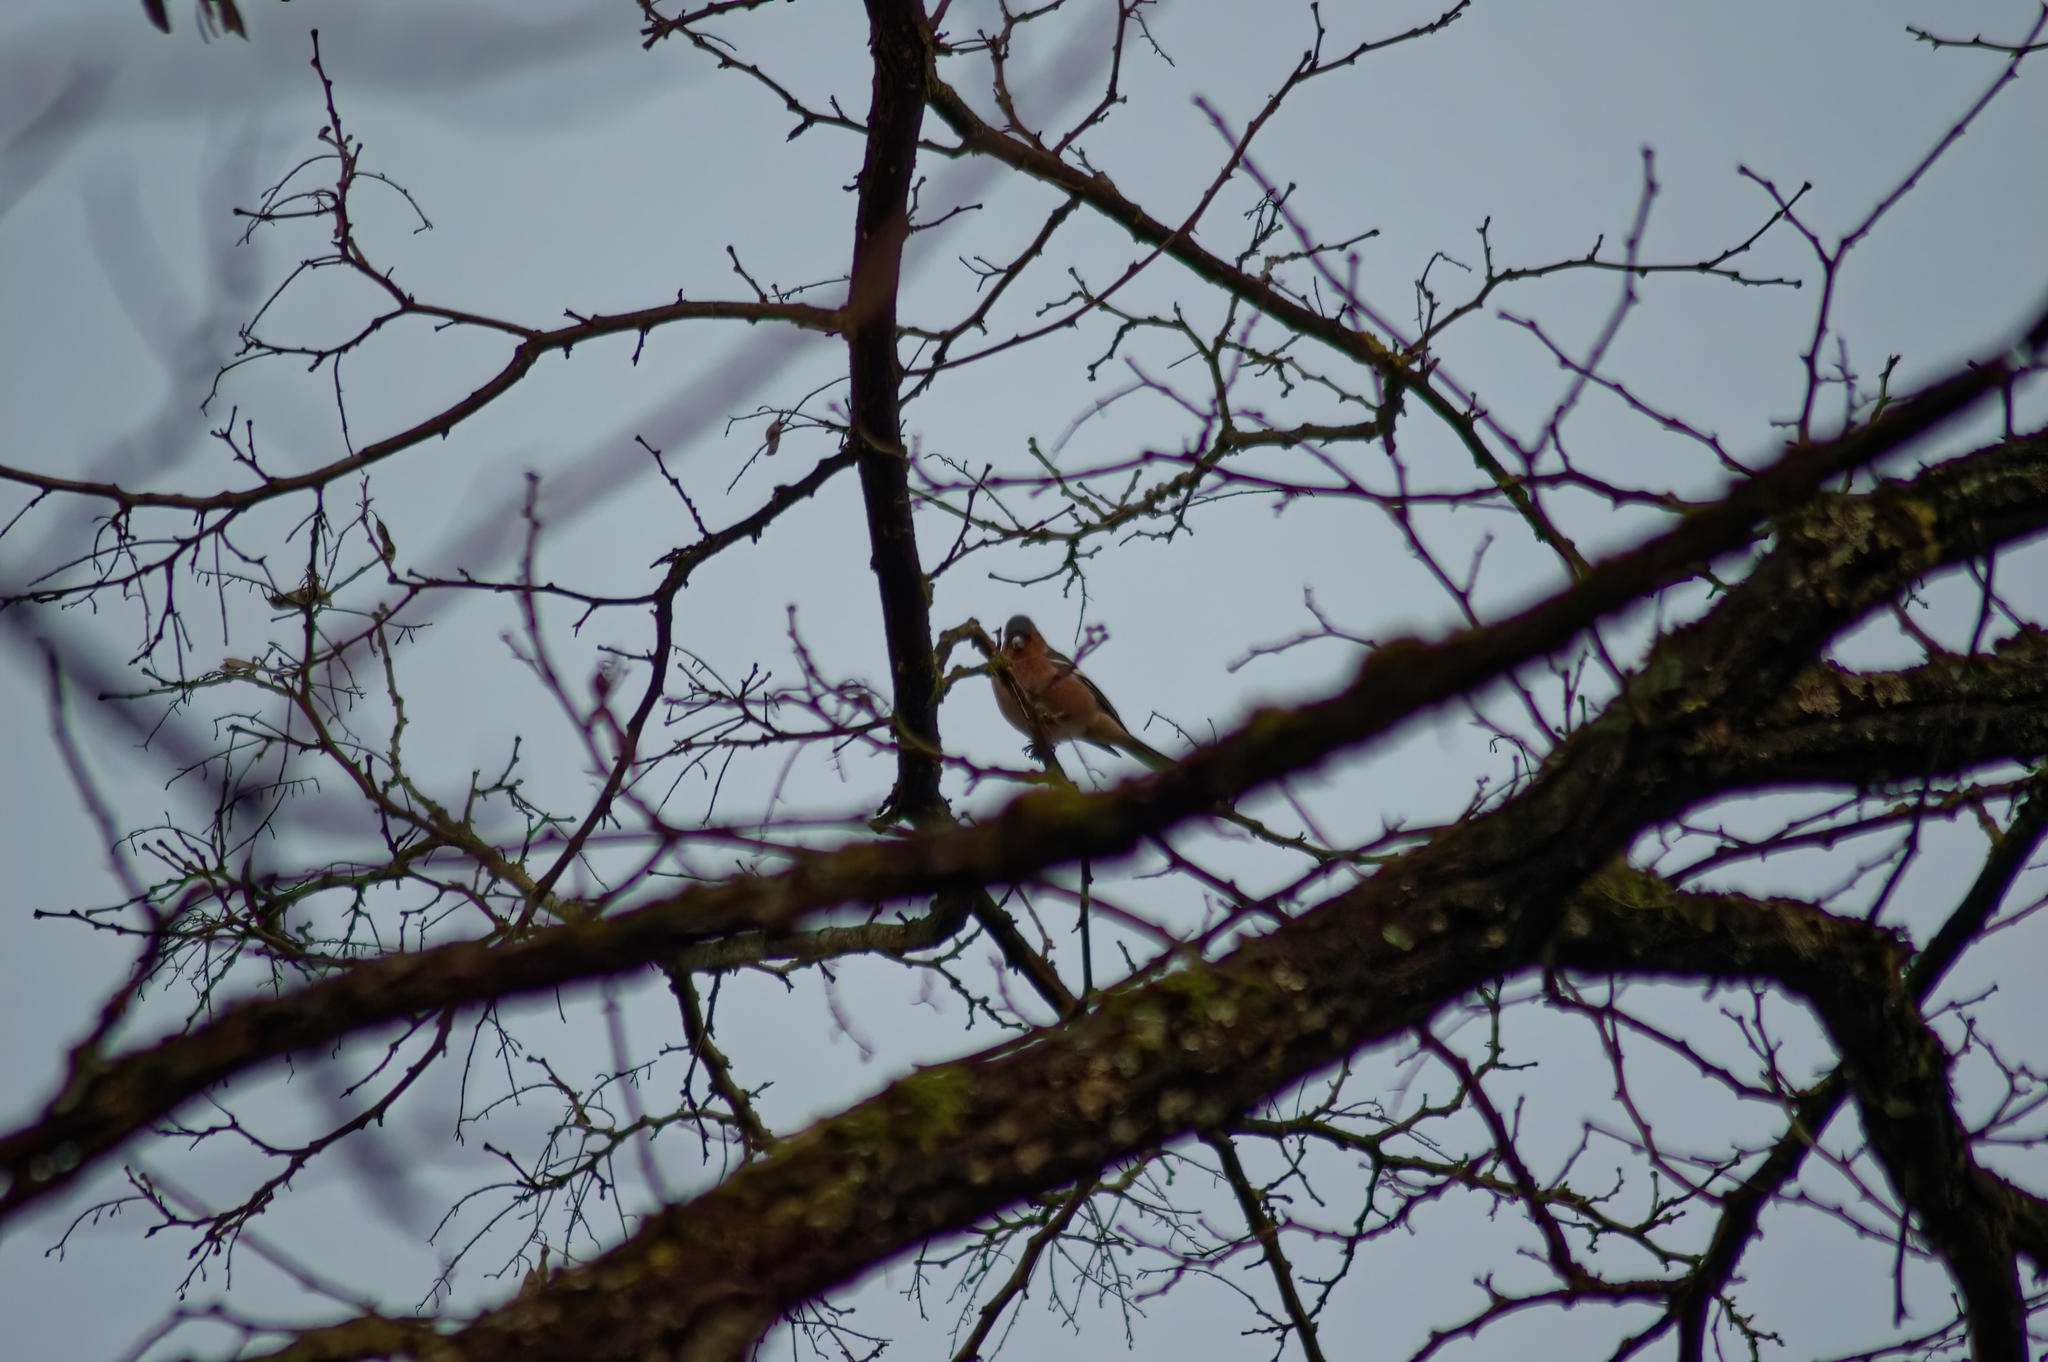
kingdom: Animalia
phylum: Chordata
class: Aves
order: Passeriformes
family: Fringillidae
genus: Fringilla
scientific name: Fringilla coelebs
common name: Common chaffinch
